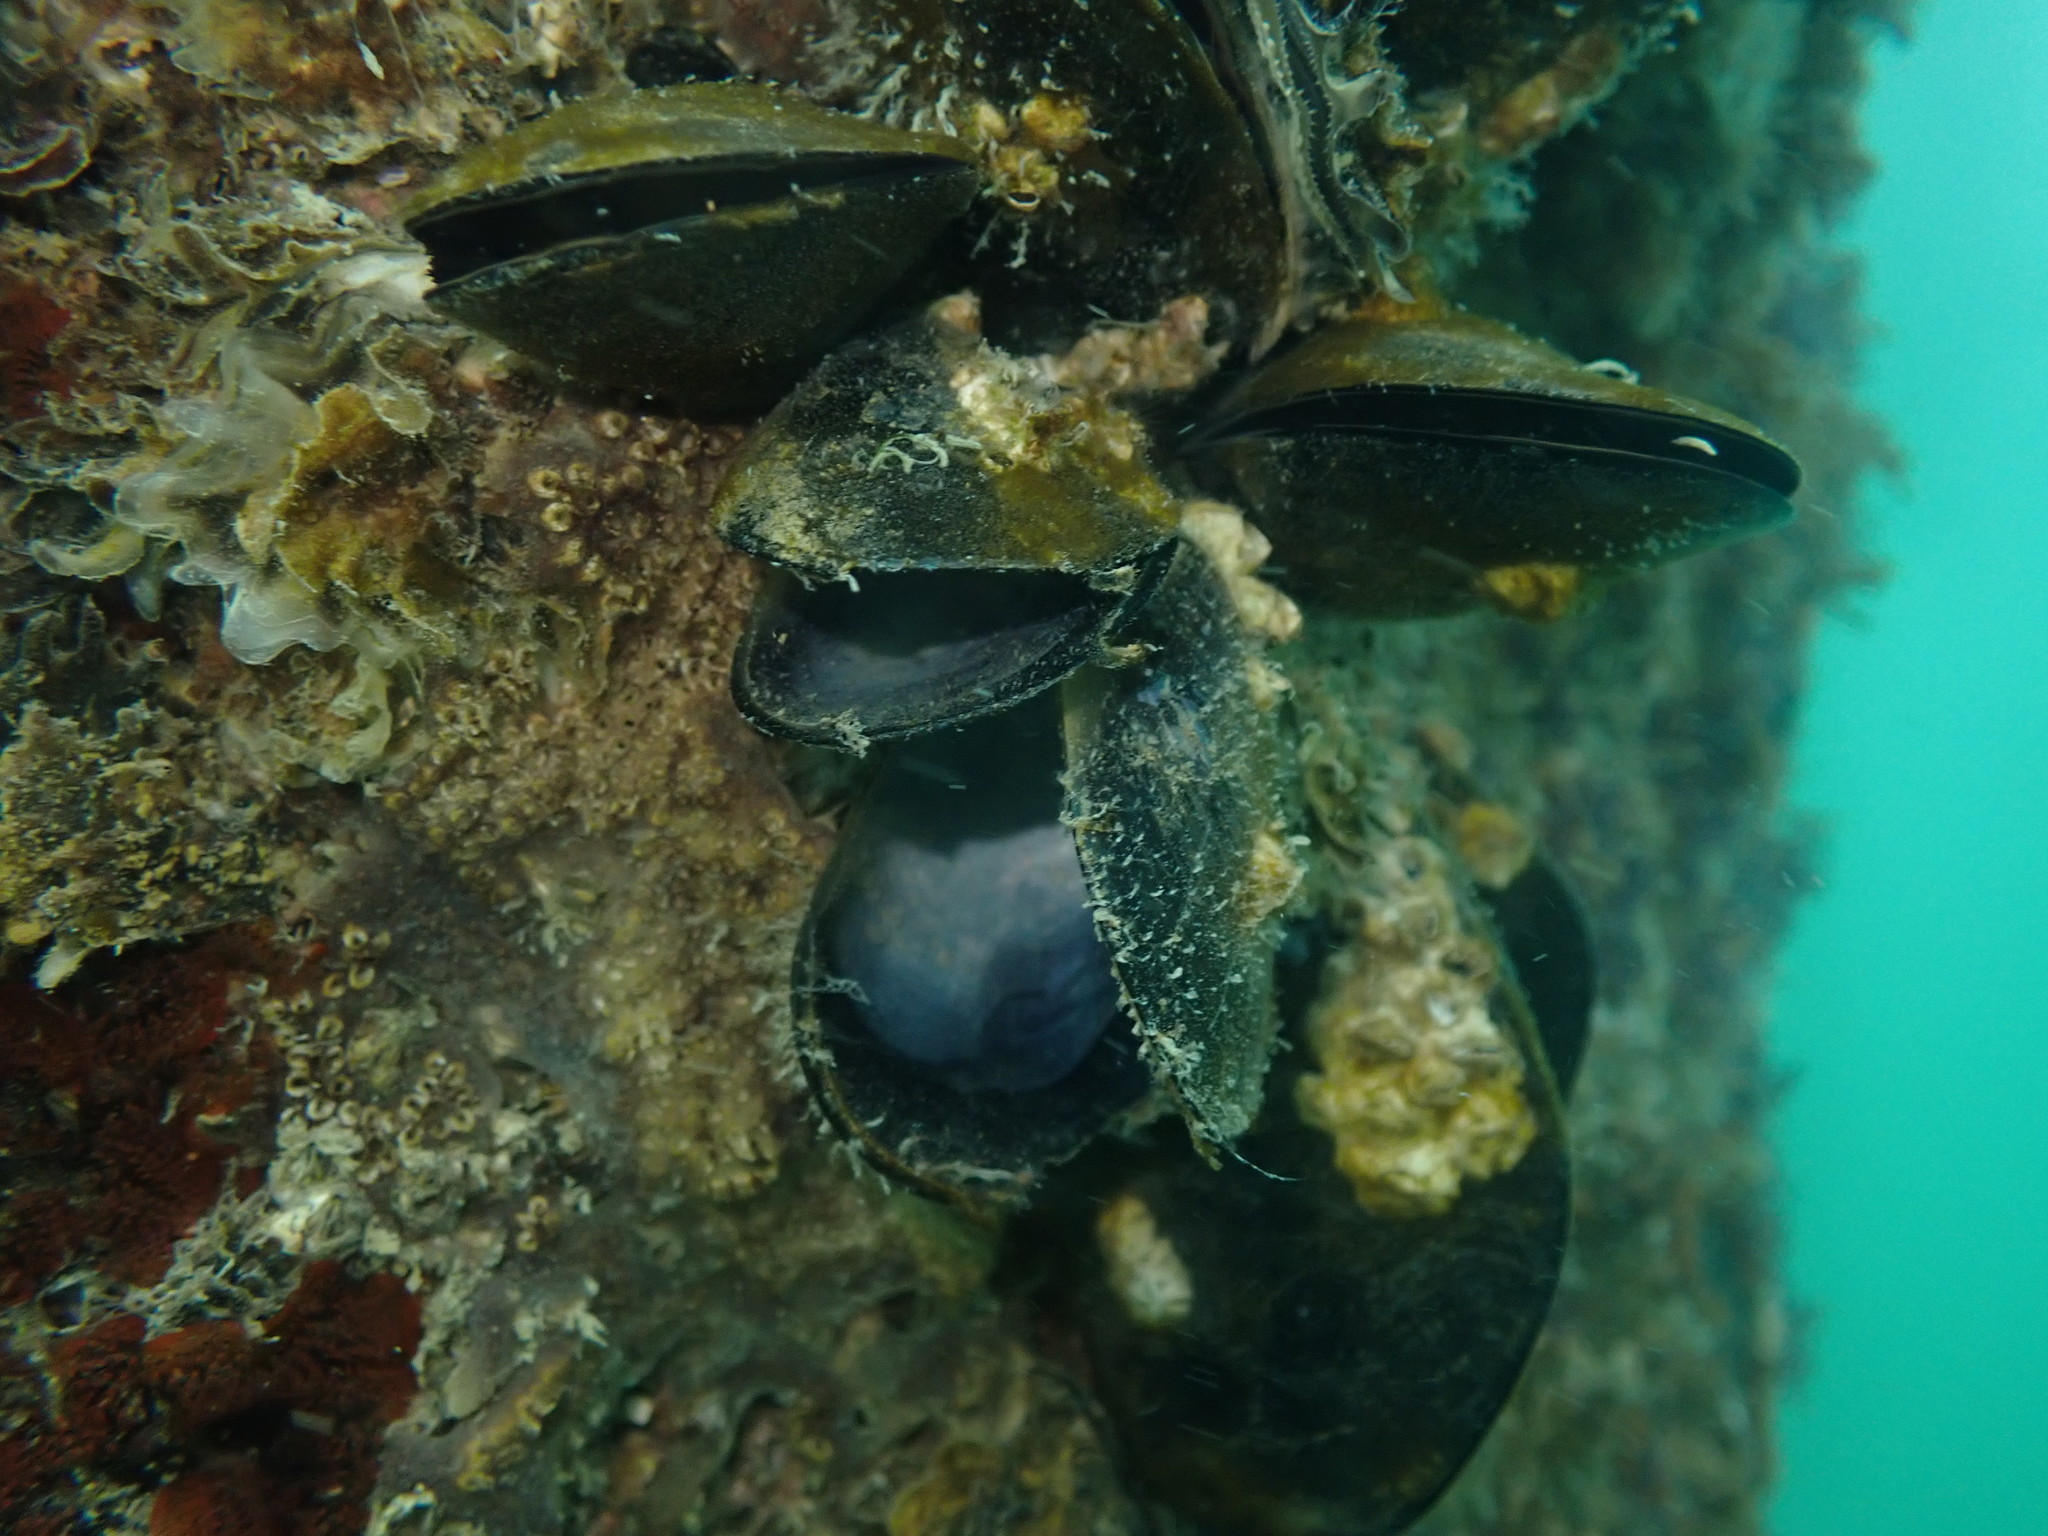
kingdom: Animalia
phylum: Mollusca
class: Bivalvia
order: Mytilida
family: Mytilidae
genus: Mytilus
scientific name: Mytilus planulatus
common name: Australian mussel
